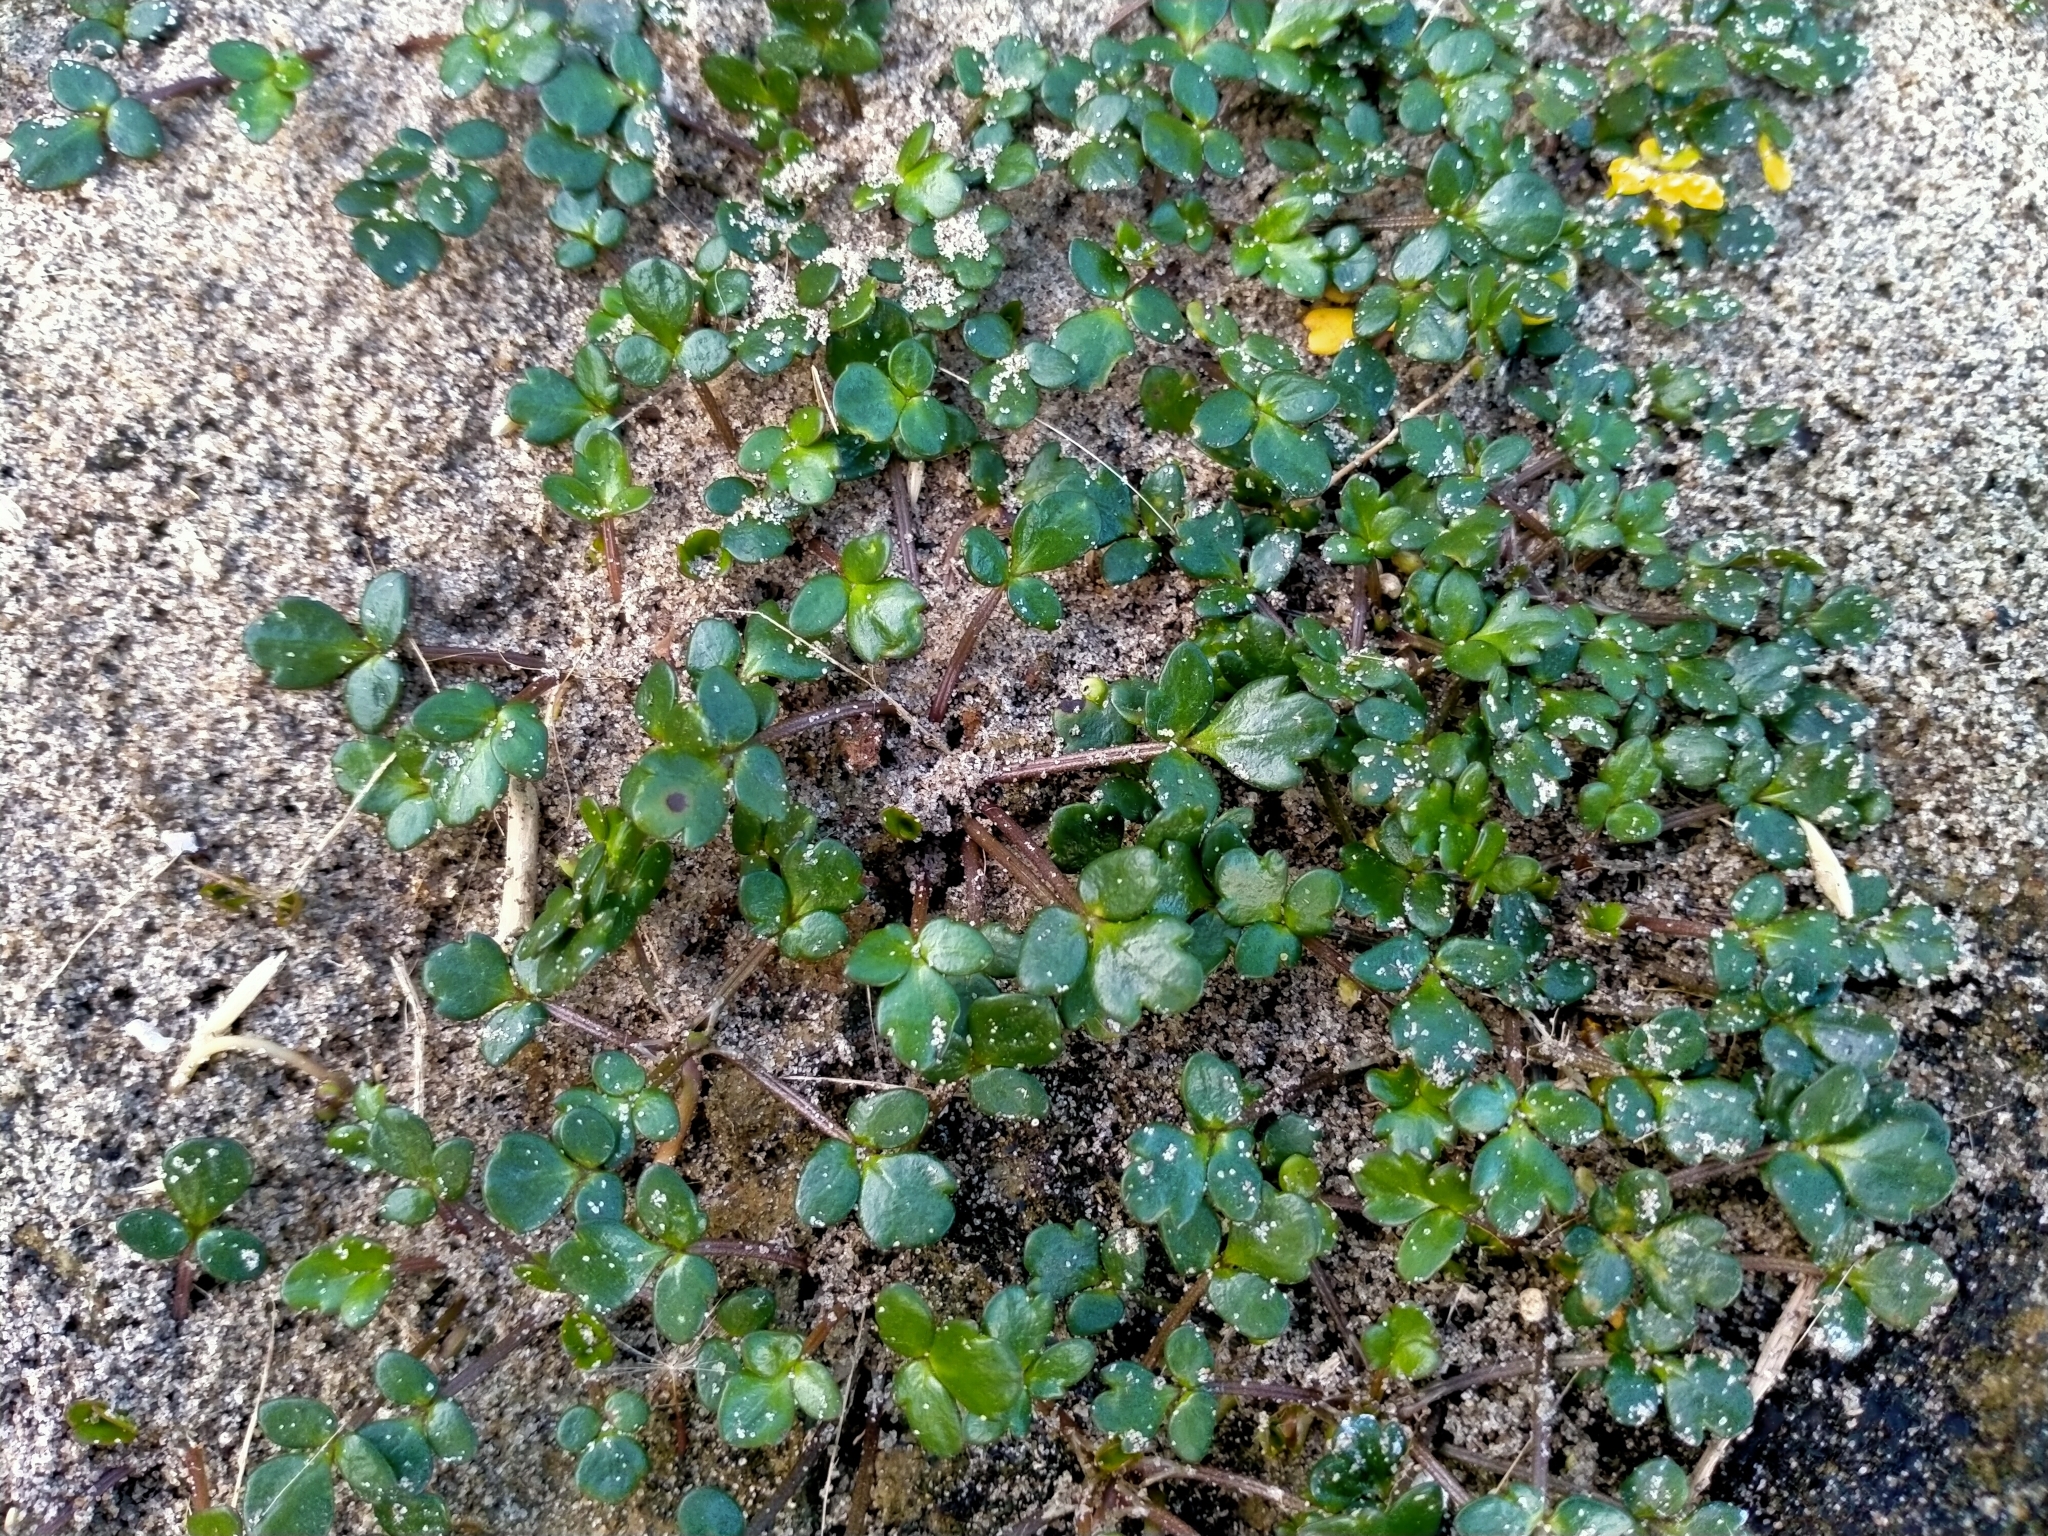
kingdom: Plantae
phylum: Tracheophyta
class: Magnoliopsida
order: Ranunculales
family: Ranunculaceae
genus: Ranunculus
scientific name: Ranunculus acaulis
